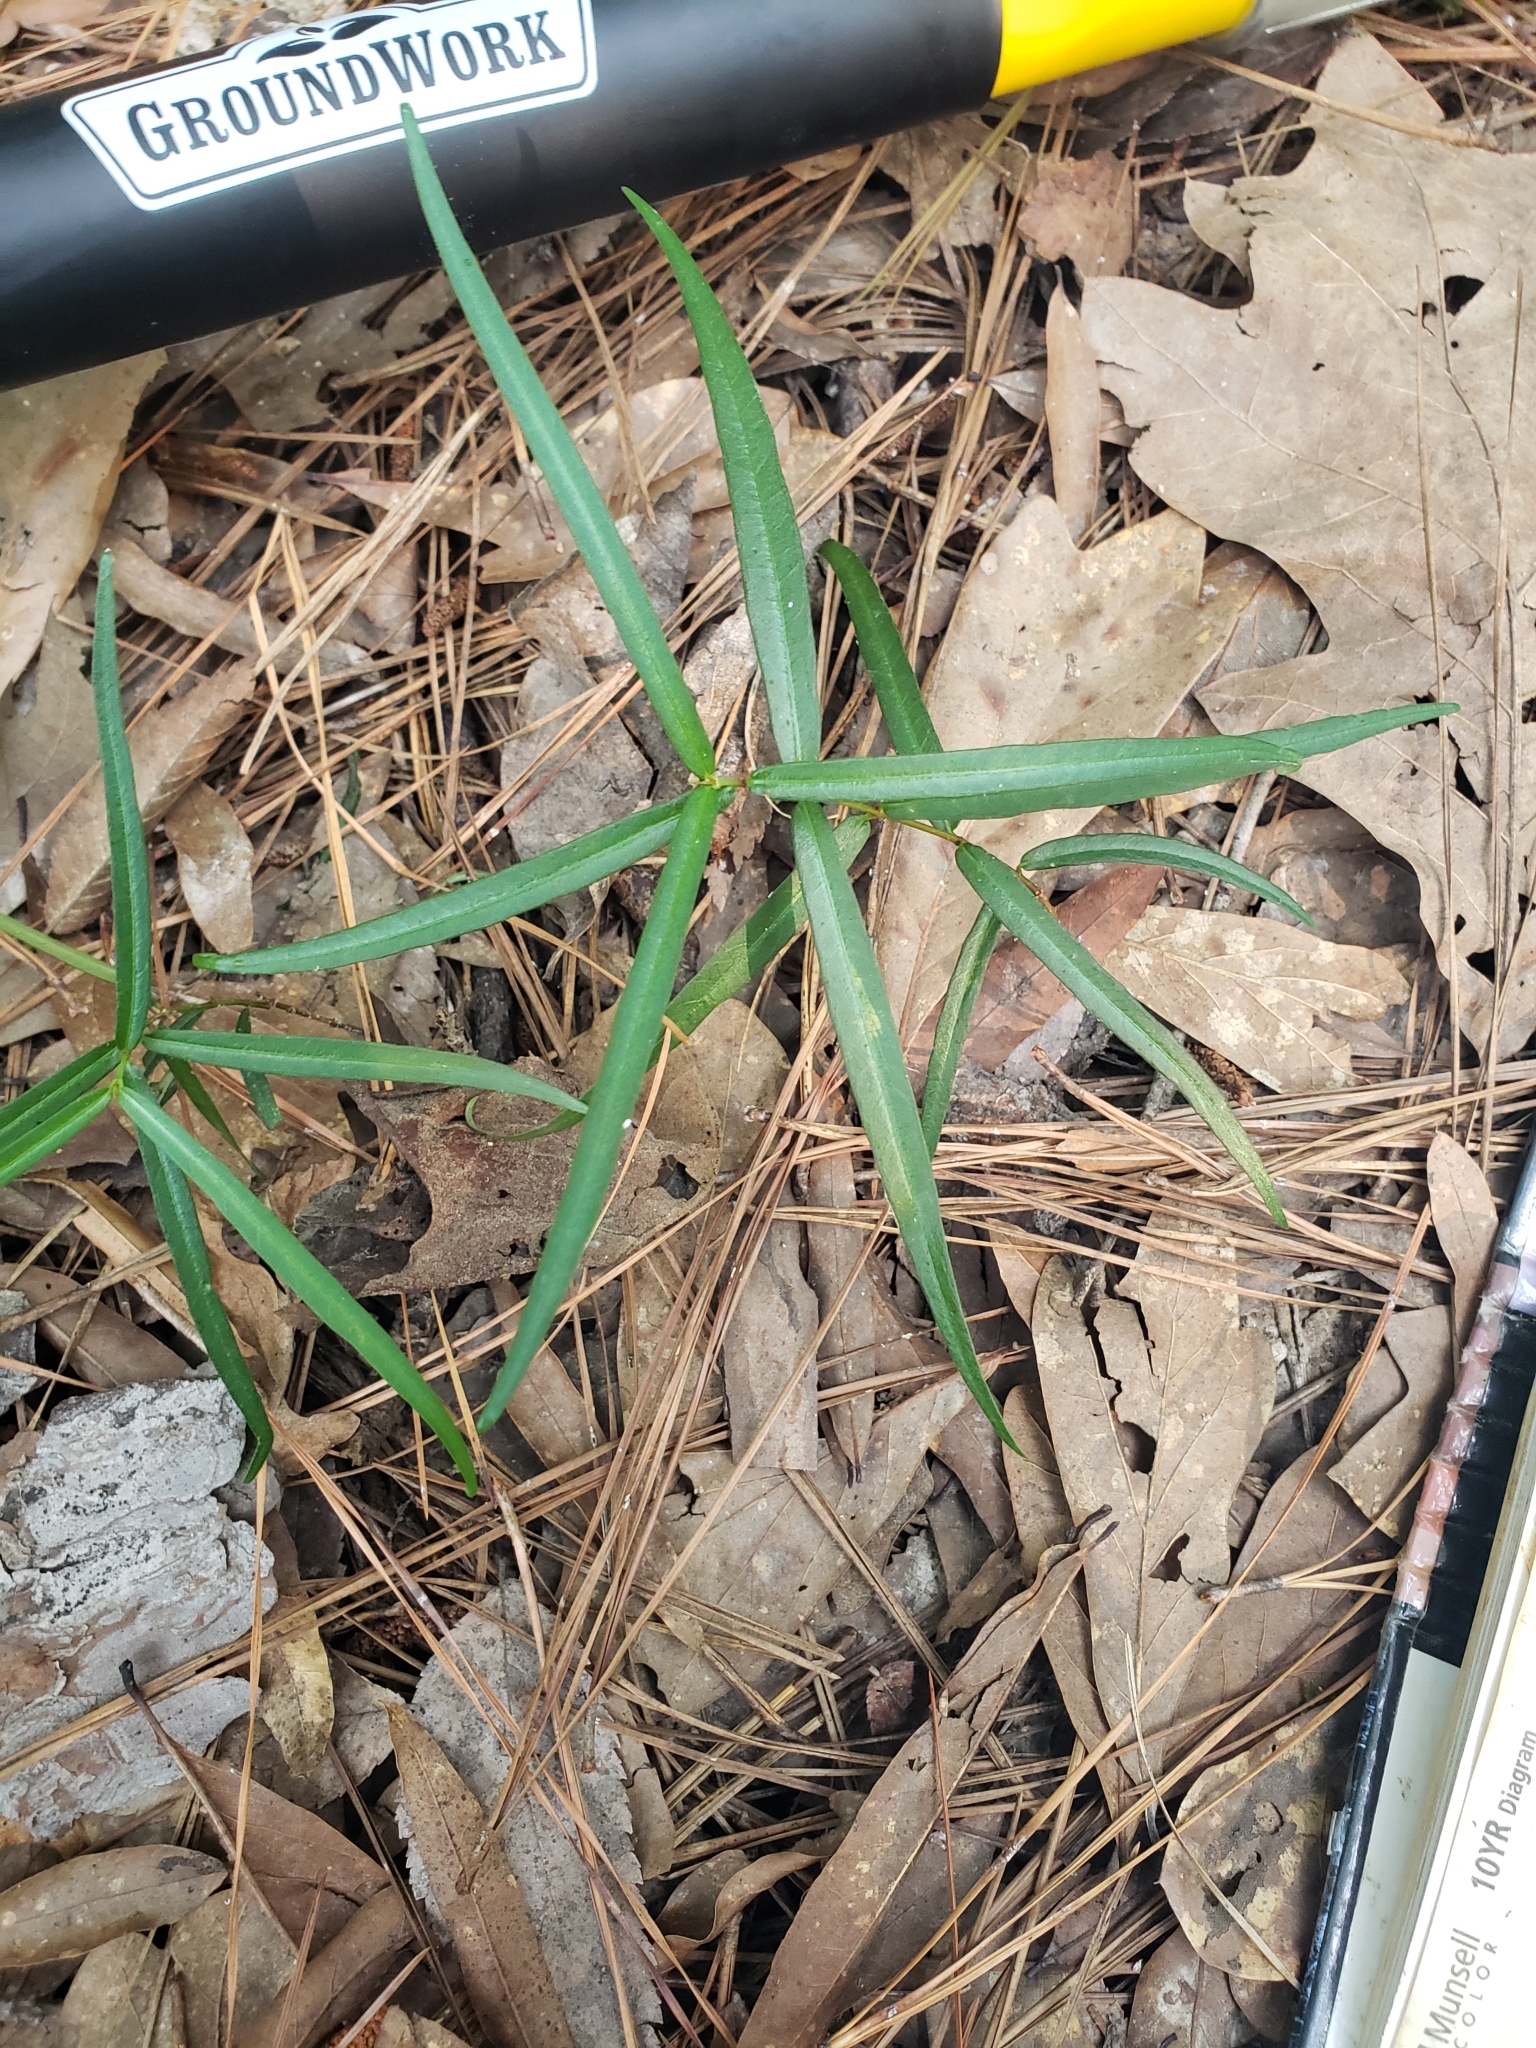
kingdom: Plantae
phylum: Tracheophyta
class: Magnoliopsida
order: Gentianales
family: Apocynaceae
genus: Thyrsanthella
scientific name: Thyrsanthella difformis
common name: Climbing dogbane
